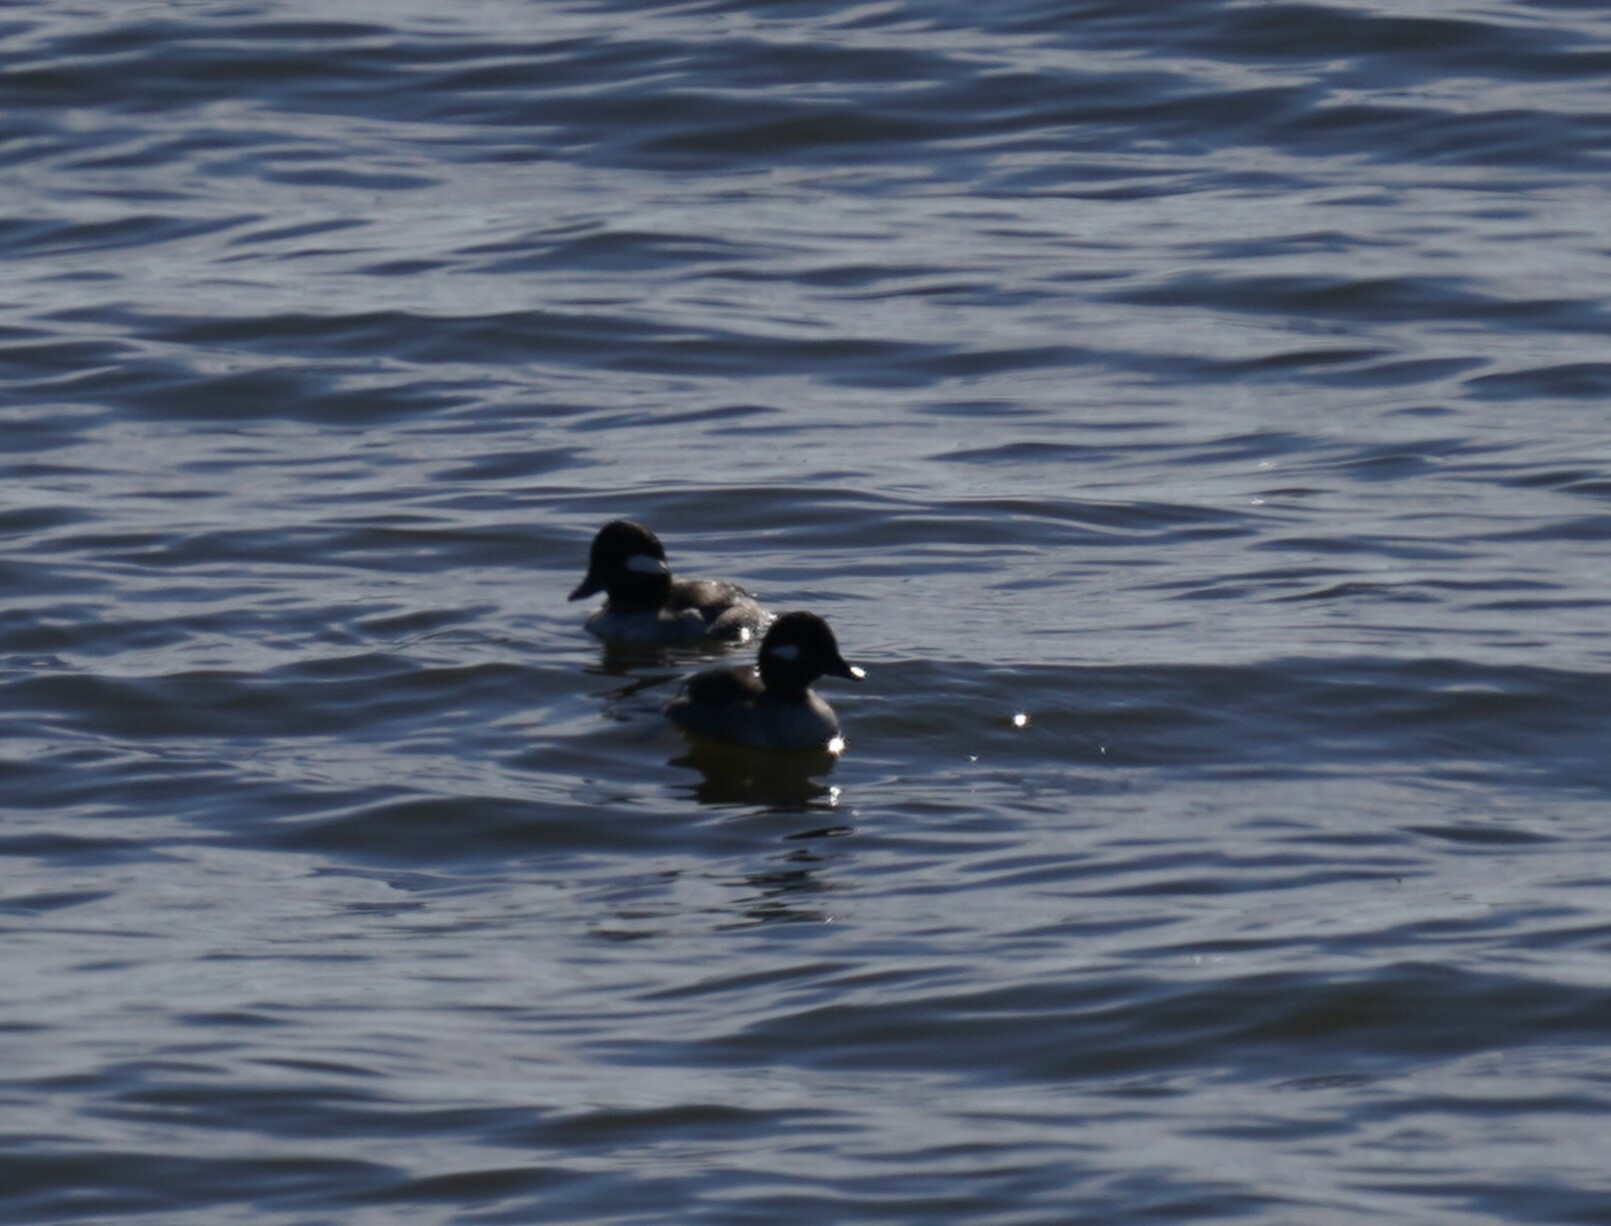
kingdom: Animalia
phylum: Chordata
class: Aves
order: Anseriformes
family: Anatidae
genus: Bucephala
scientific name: Bucephala albeola
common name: Bufflehead
